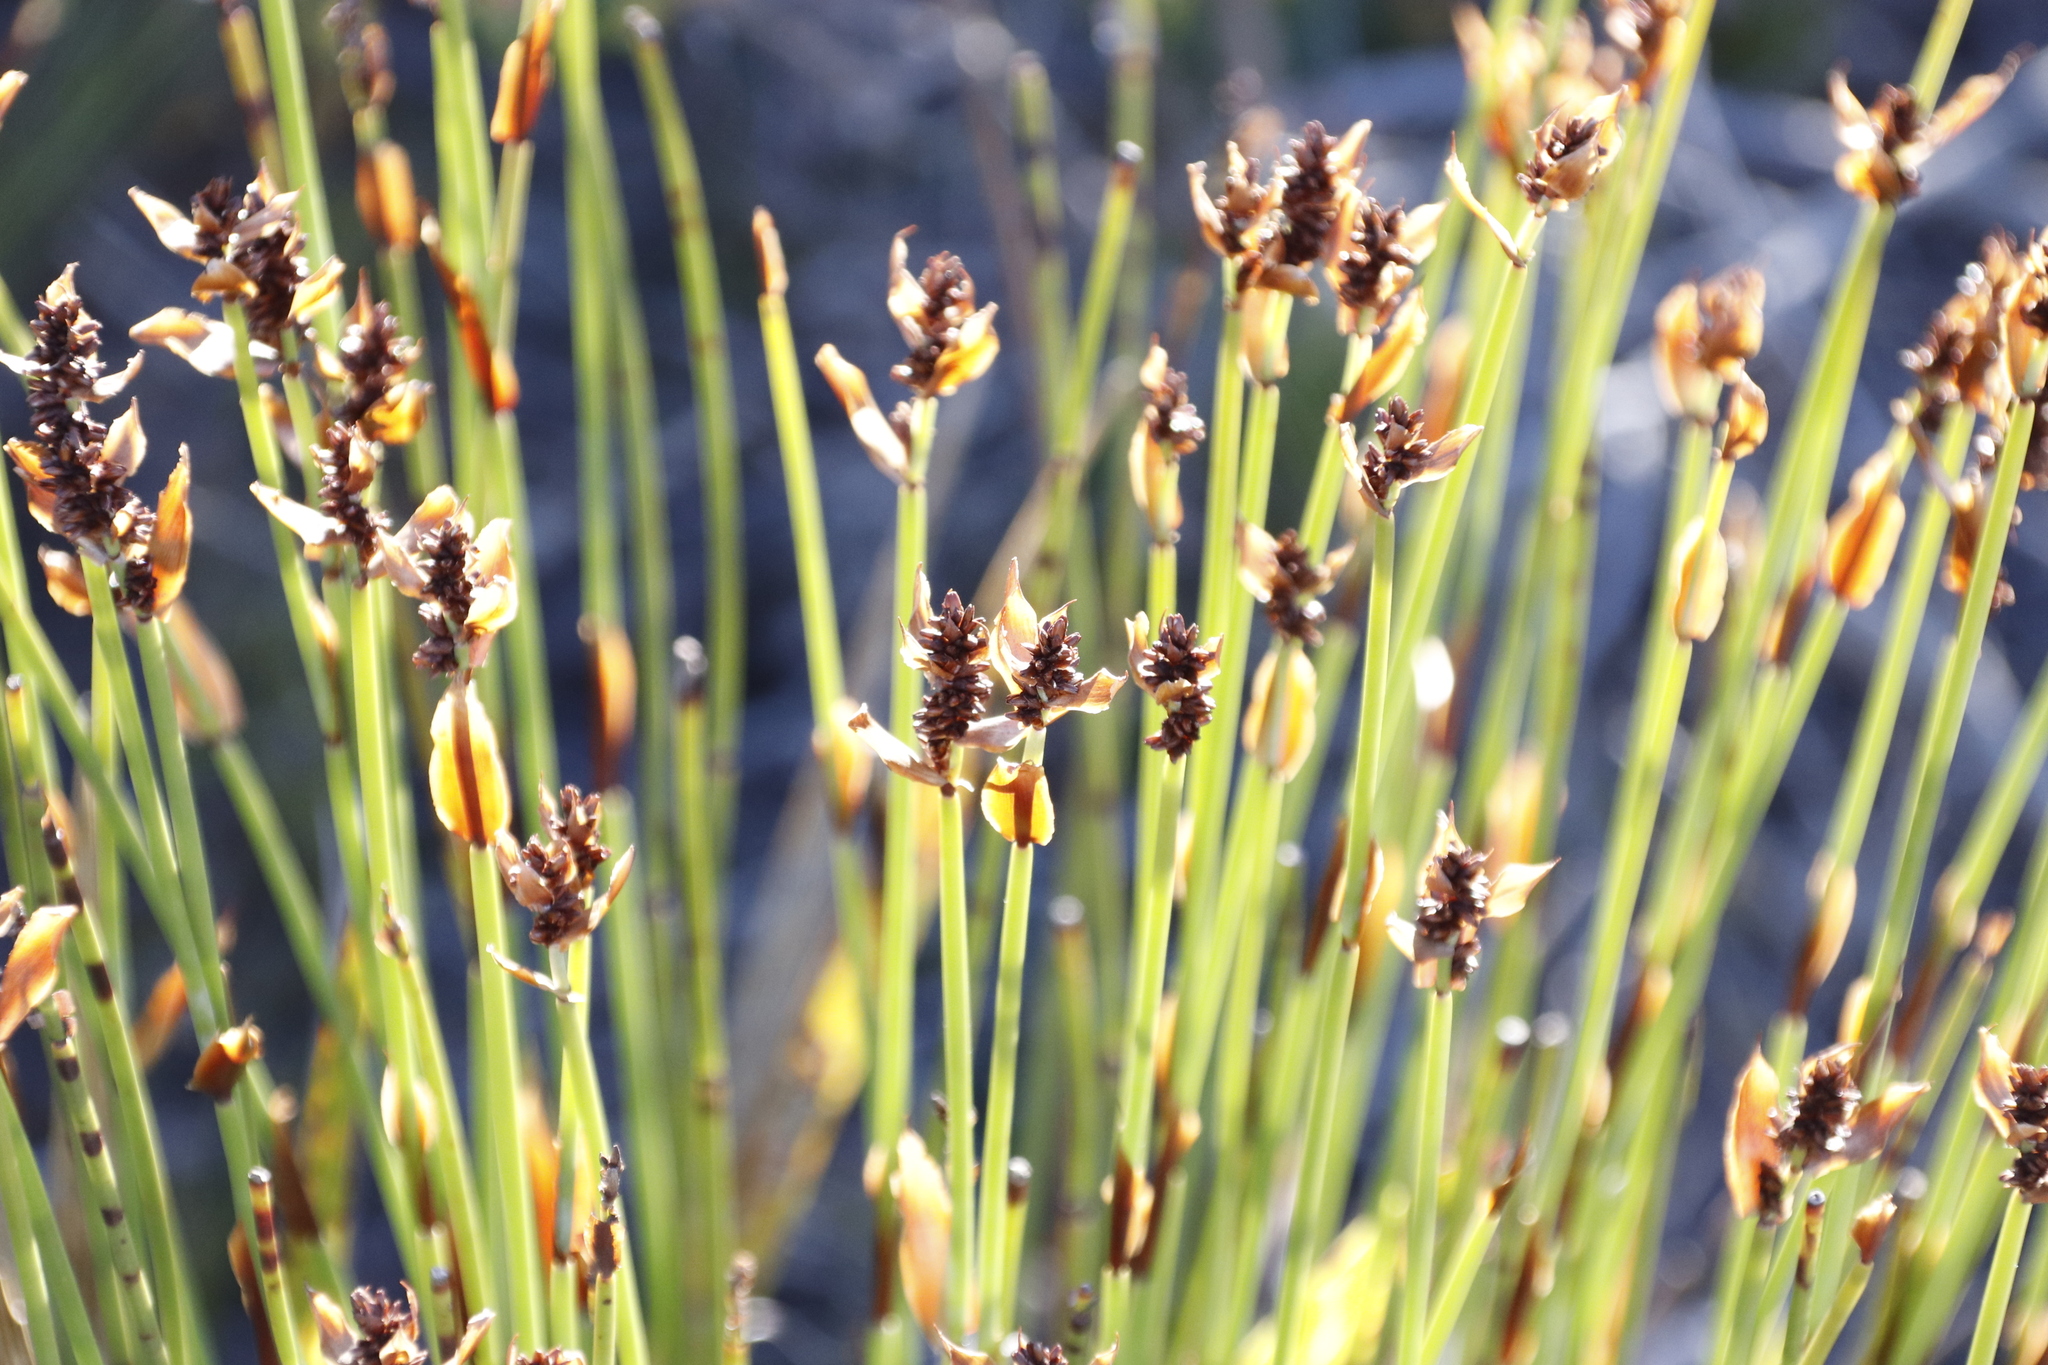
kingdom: Plantae
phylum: Tracheophyta
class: Liliopsida
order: Poales
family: Restionaceae
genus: Elegia
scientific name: Elegia ebracteata
